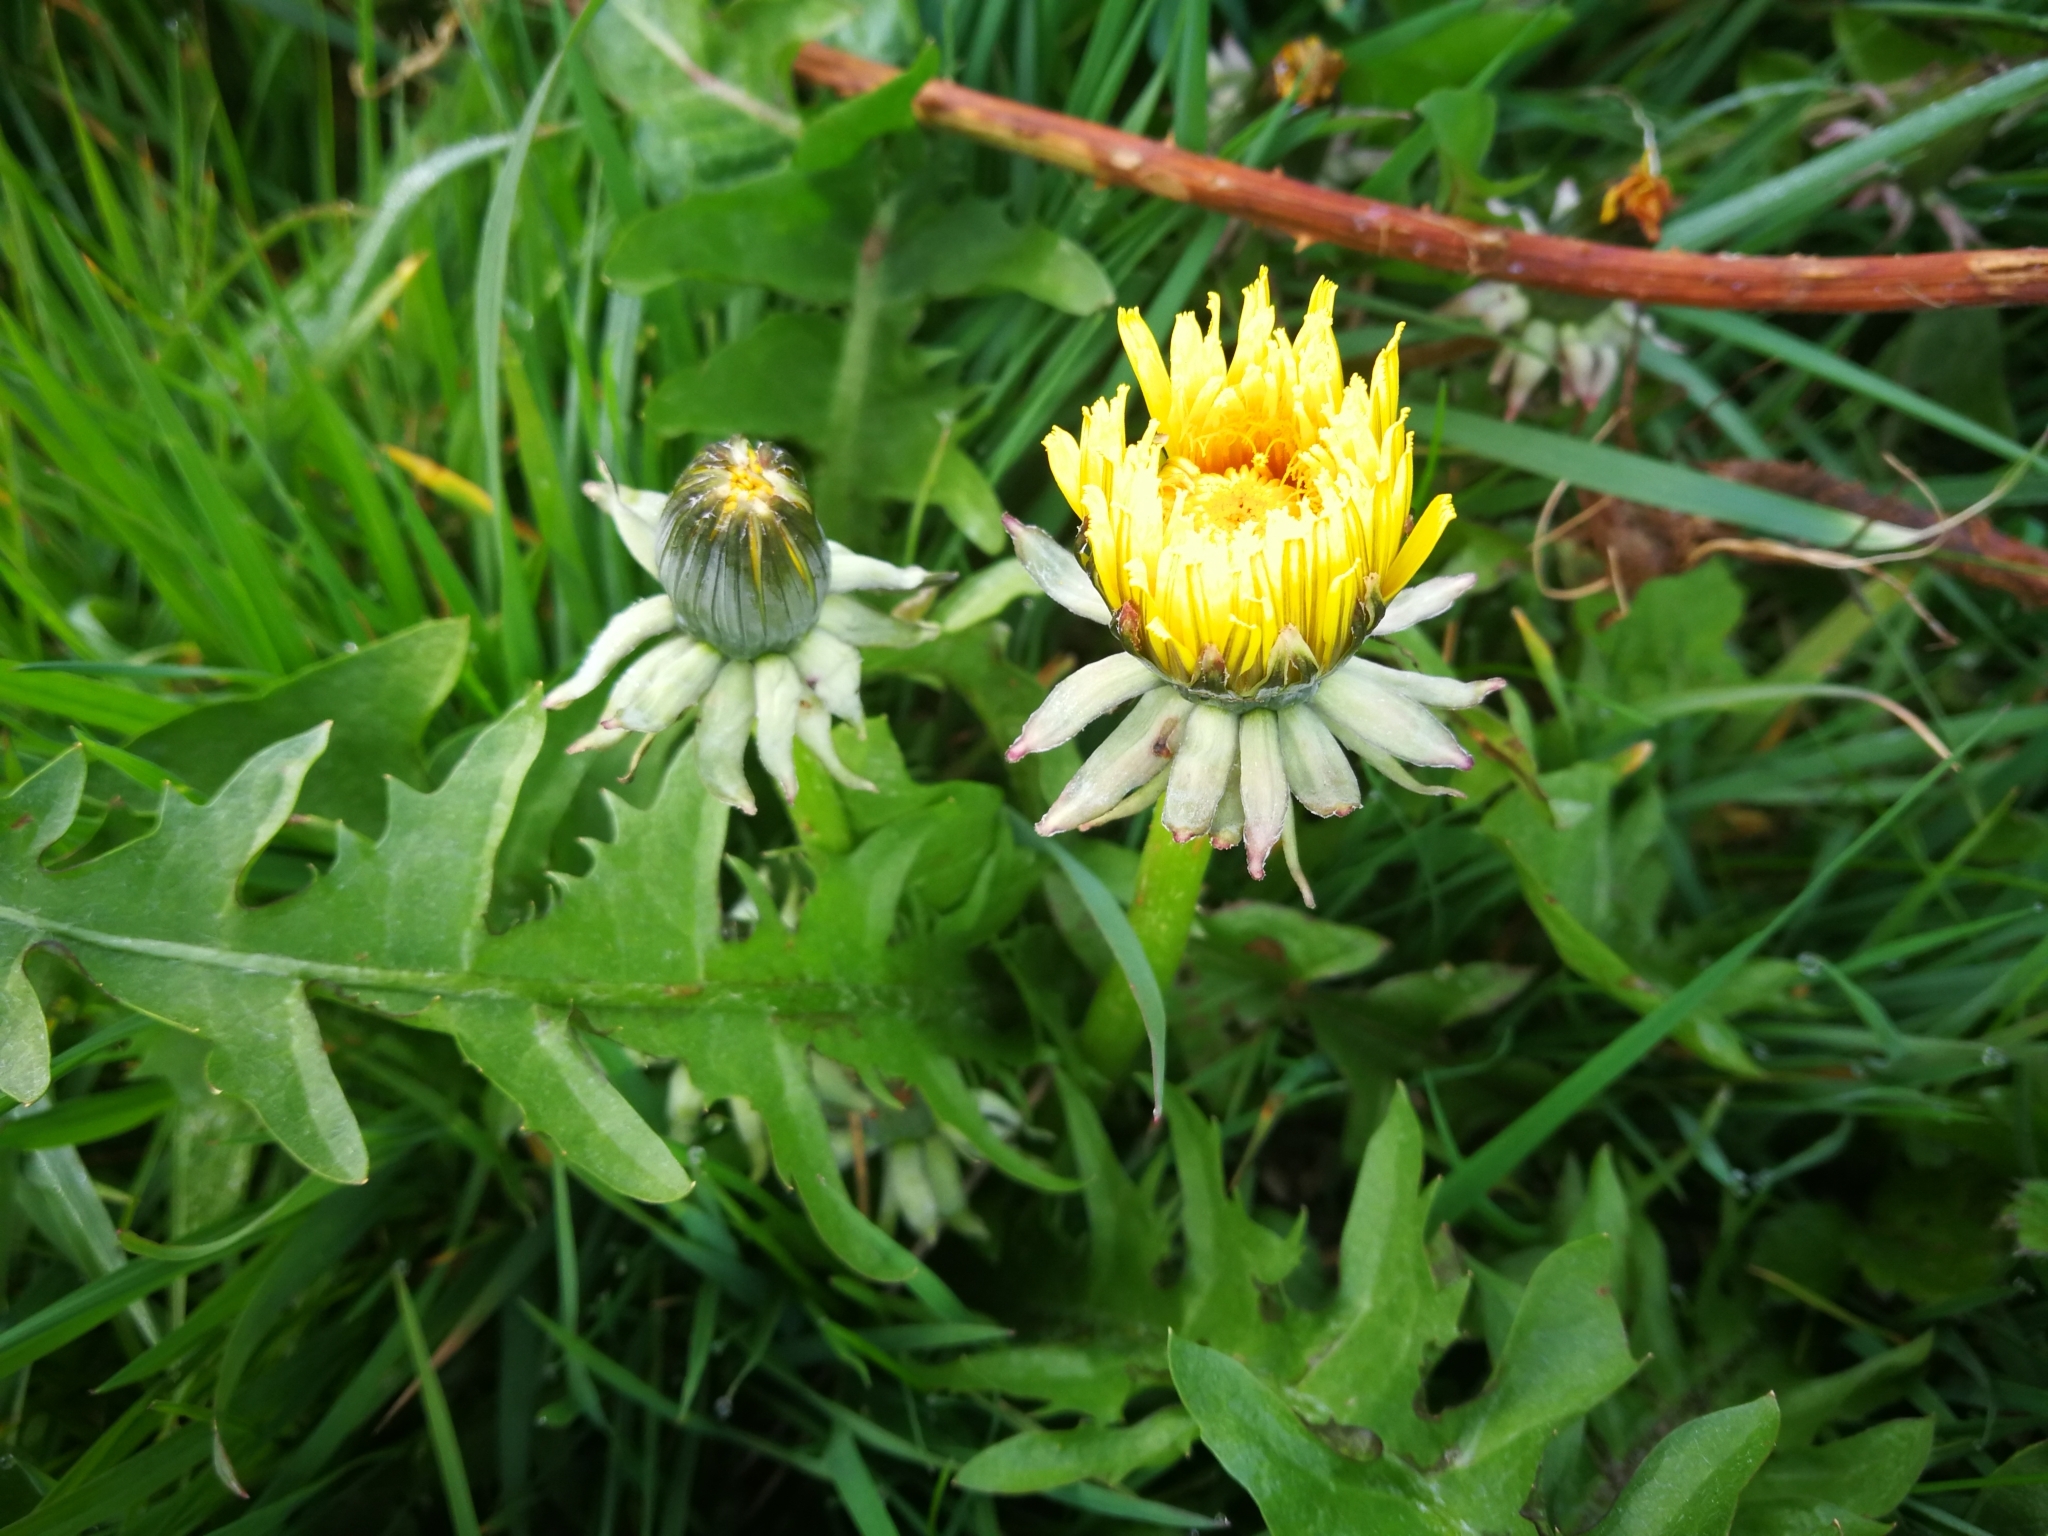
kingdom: Plantae
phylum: Tracheophyta
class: Magnoliopsida
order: Asterales
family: Asteraceae
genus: Taraxacum
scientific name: Taraxacum officinale
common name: Common dandelion
